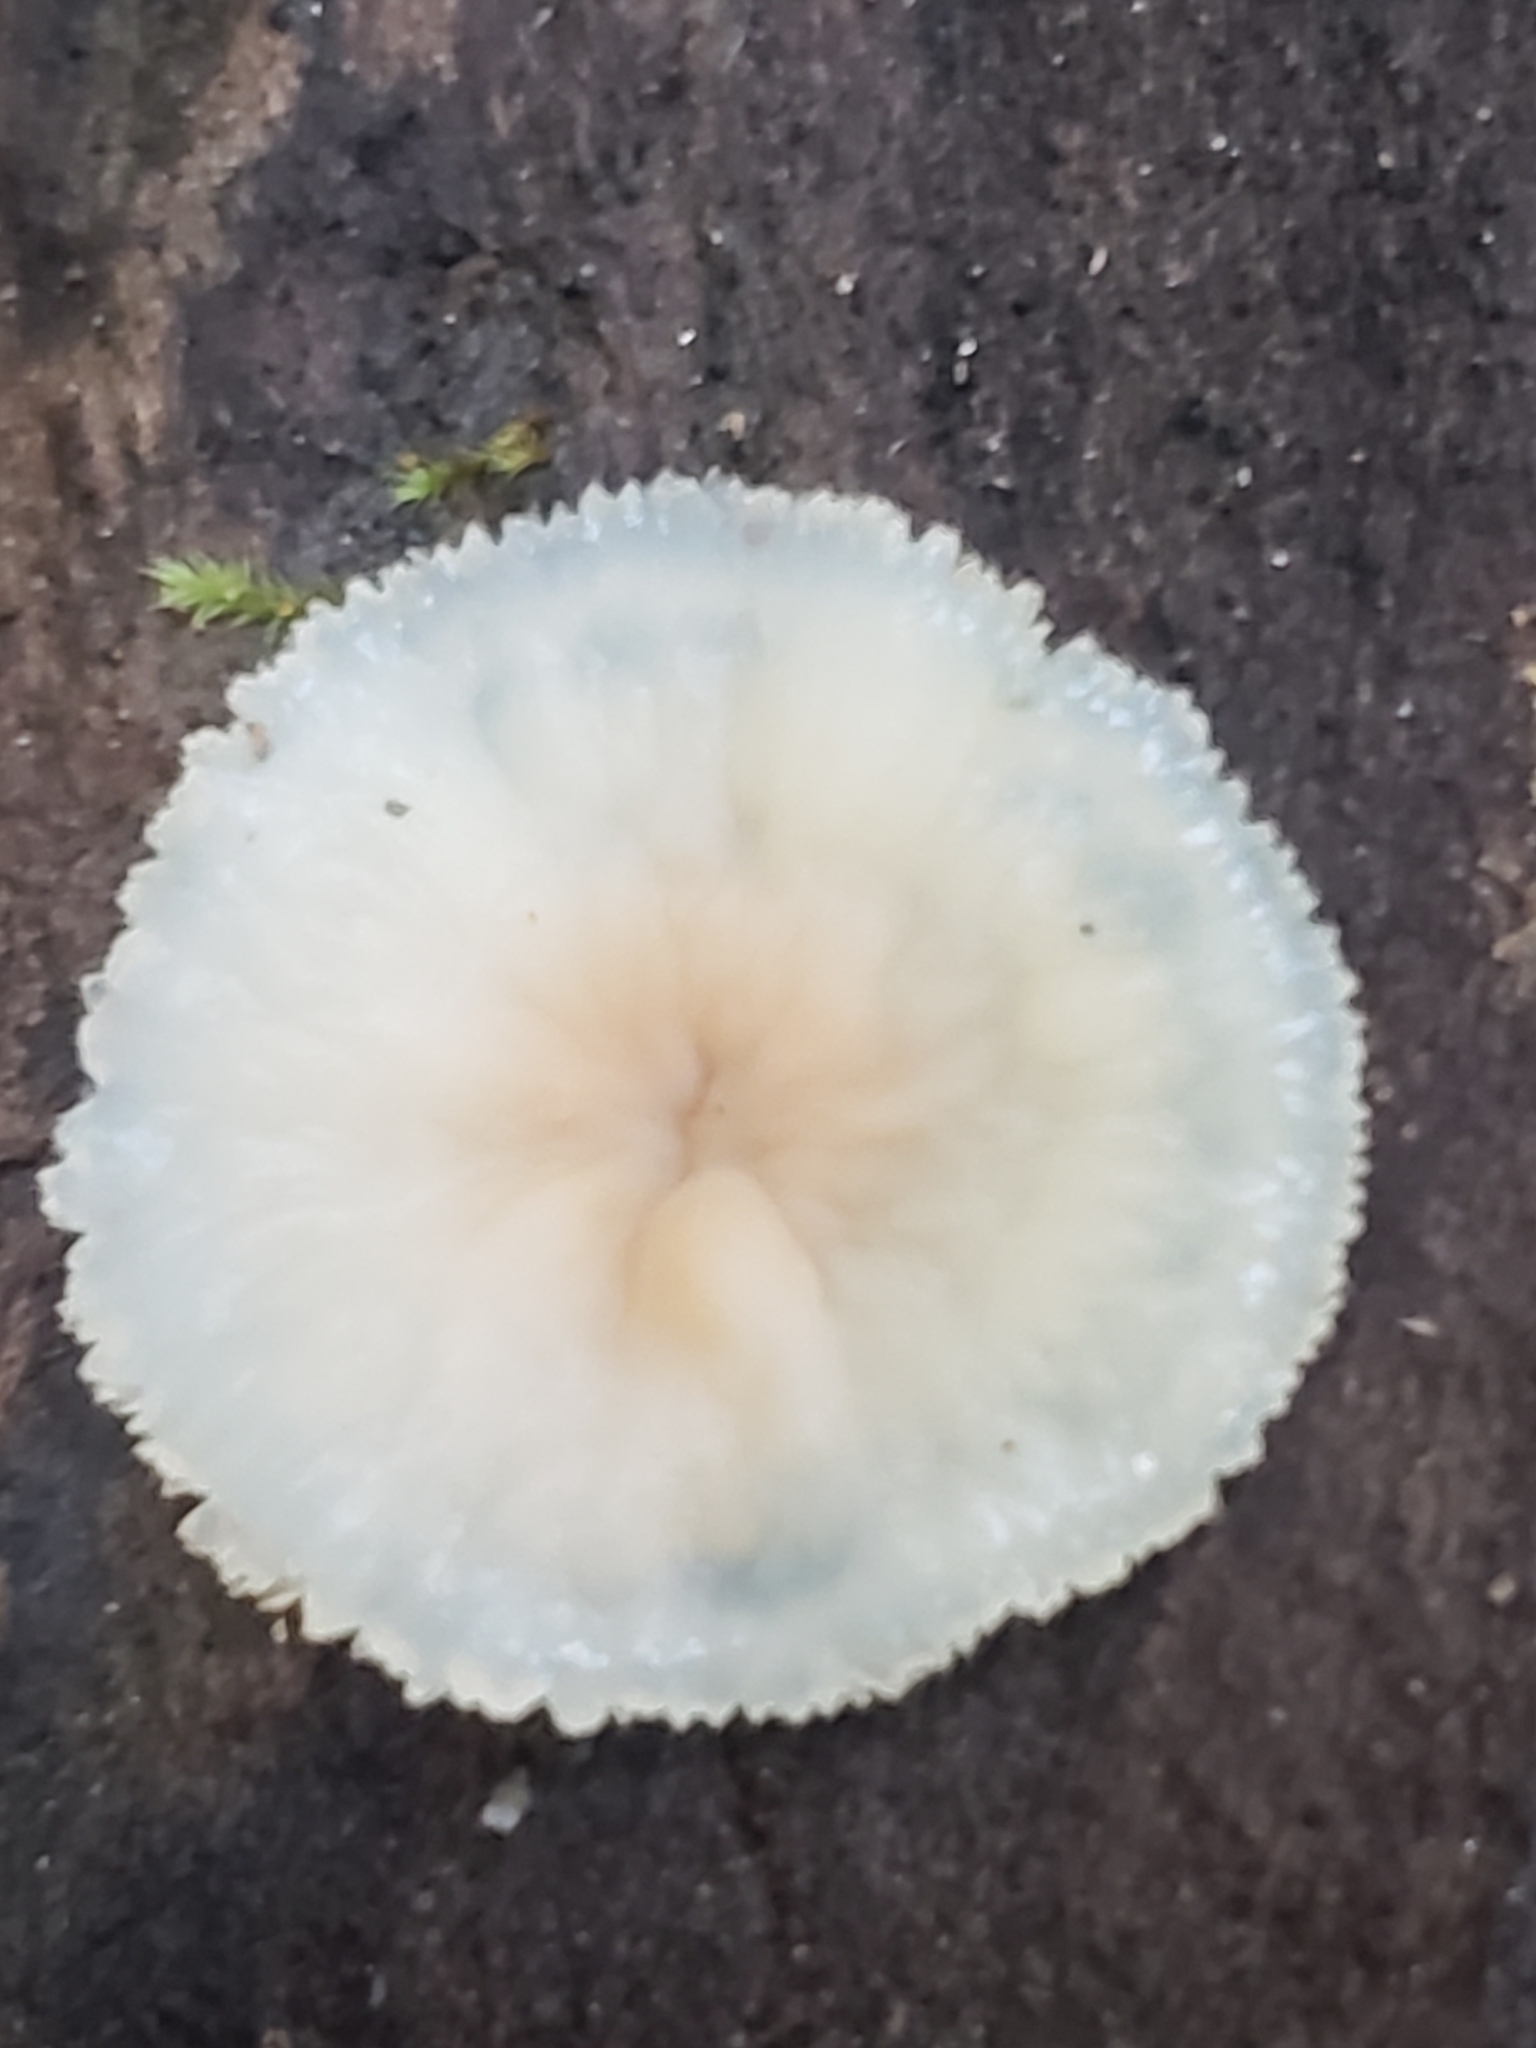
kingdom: Fungi
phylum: Basidiomycota
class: Agaricomycetes
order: Polyporales
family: Meruliaceae
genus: Phlebia
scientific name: Phlebia tremellosa
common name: Jelly rot
